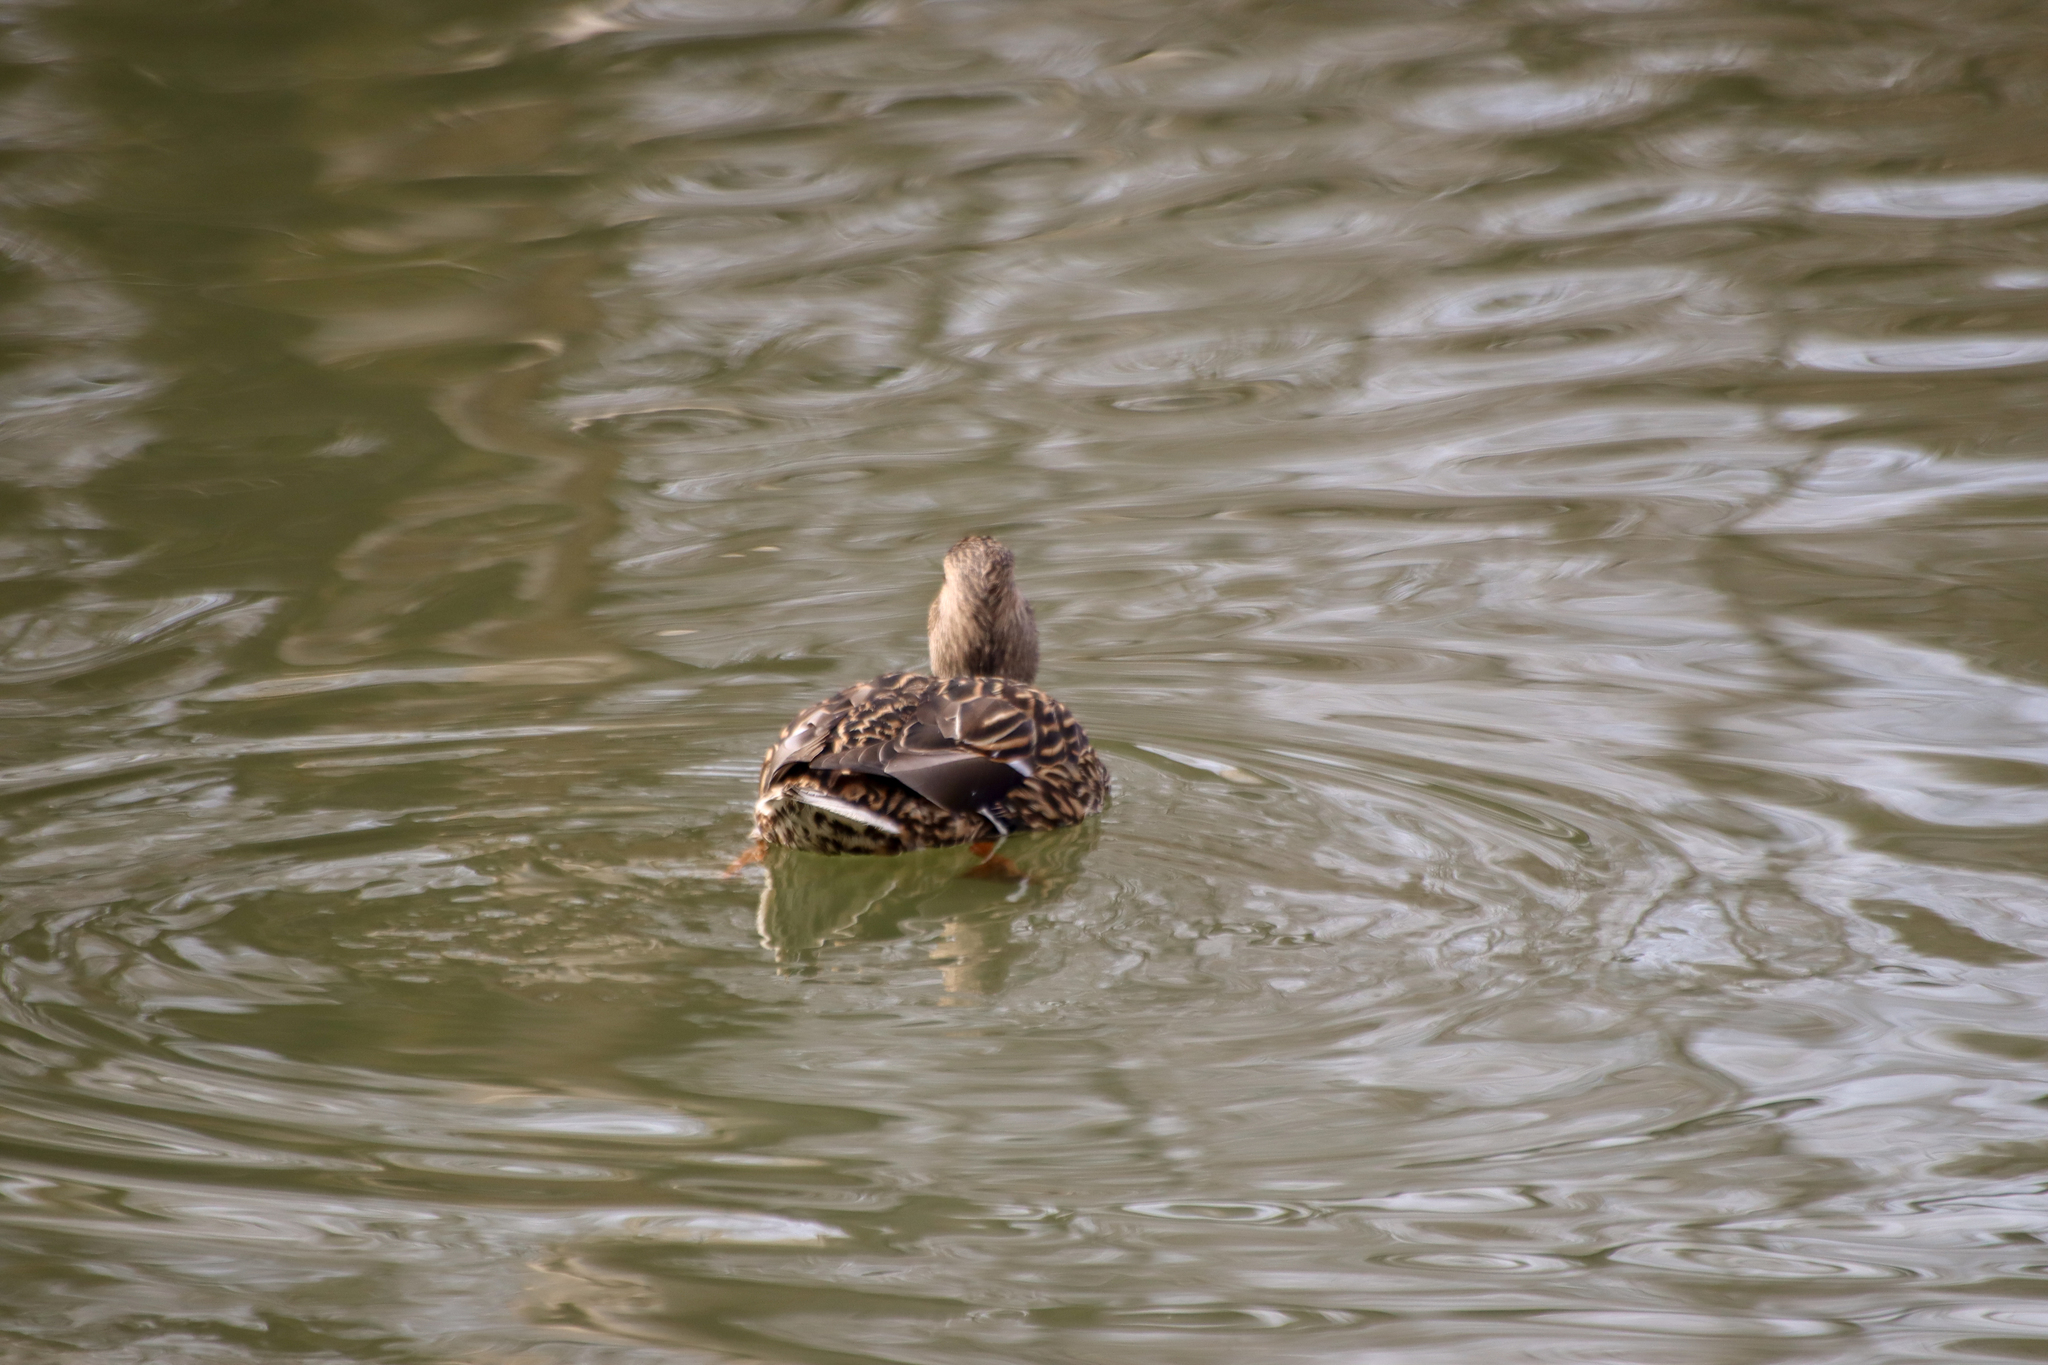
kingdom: Animalia
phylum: Chordata
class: Aves
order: Anseriformes
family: Anatidae
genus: Anas
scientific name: Anas platyrhynchos
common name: Mallard
